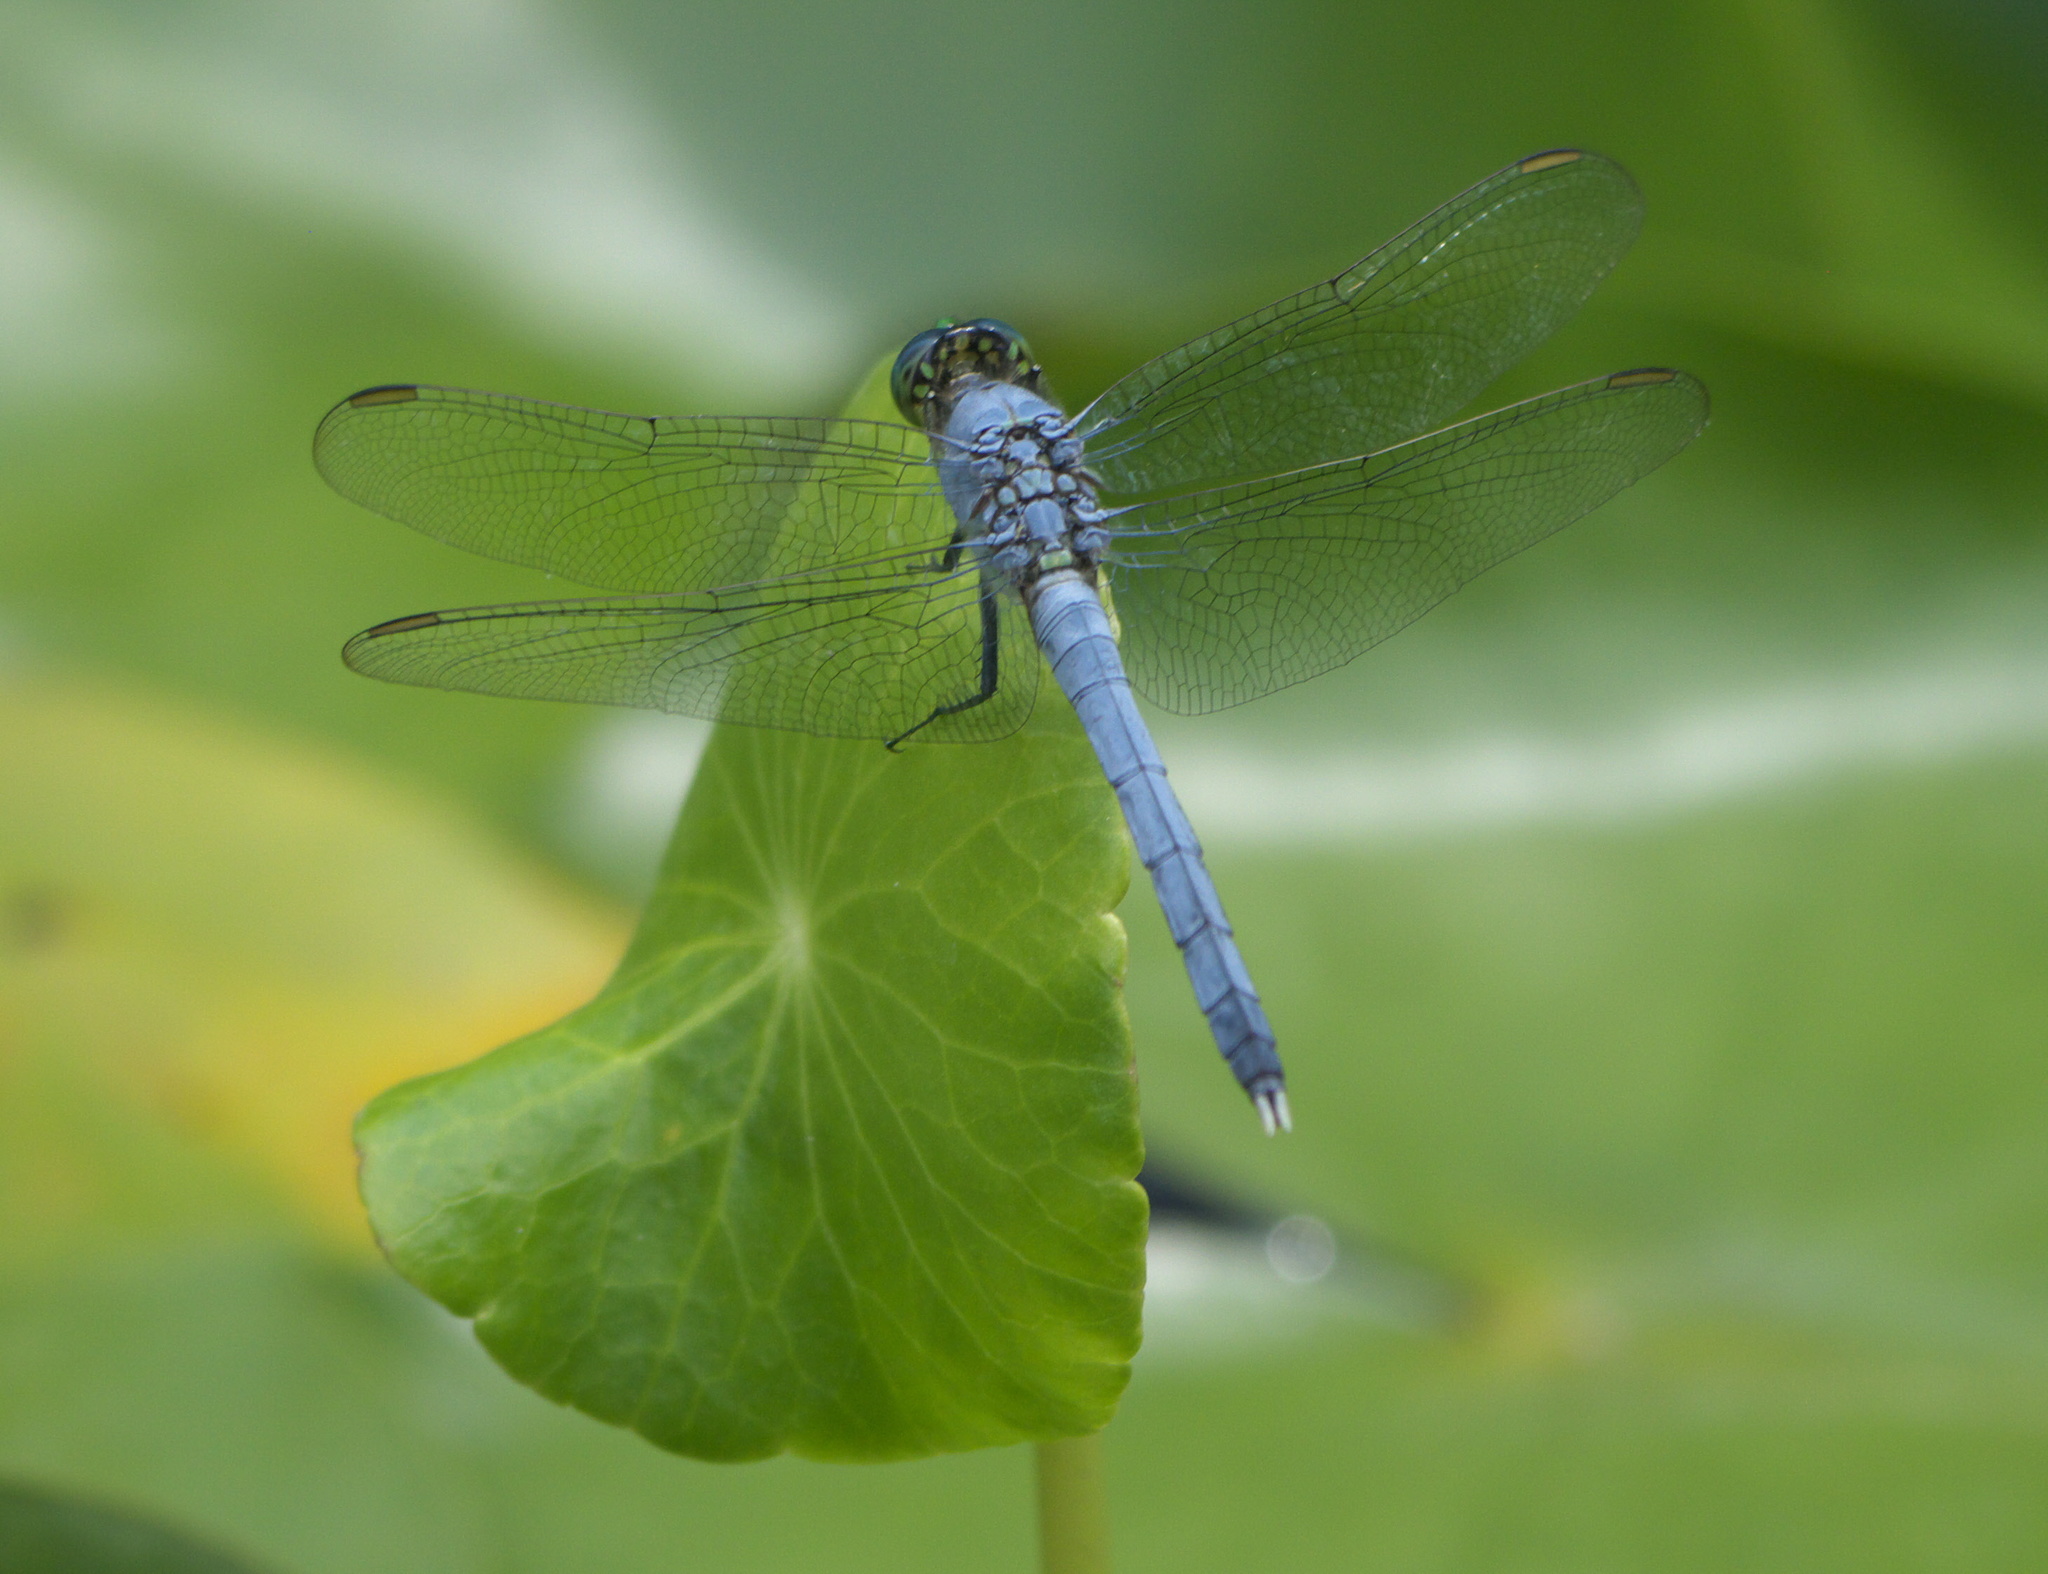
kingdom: Animalia
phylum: Arthropoda
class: Insecta
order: Odonata
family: Libellulidae
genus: Erythemis
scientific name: Erythemis simplicicollis
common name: Eastern pondhawk
